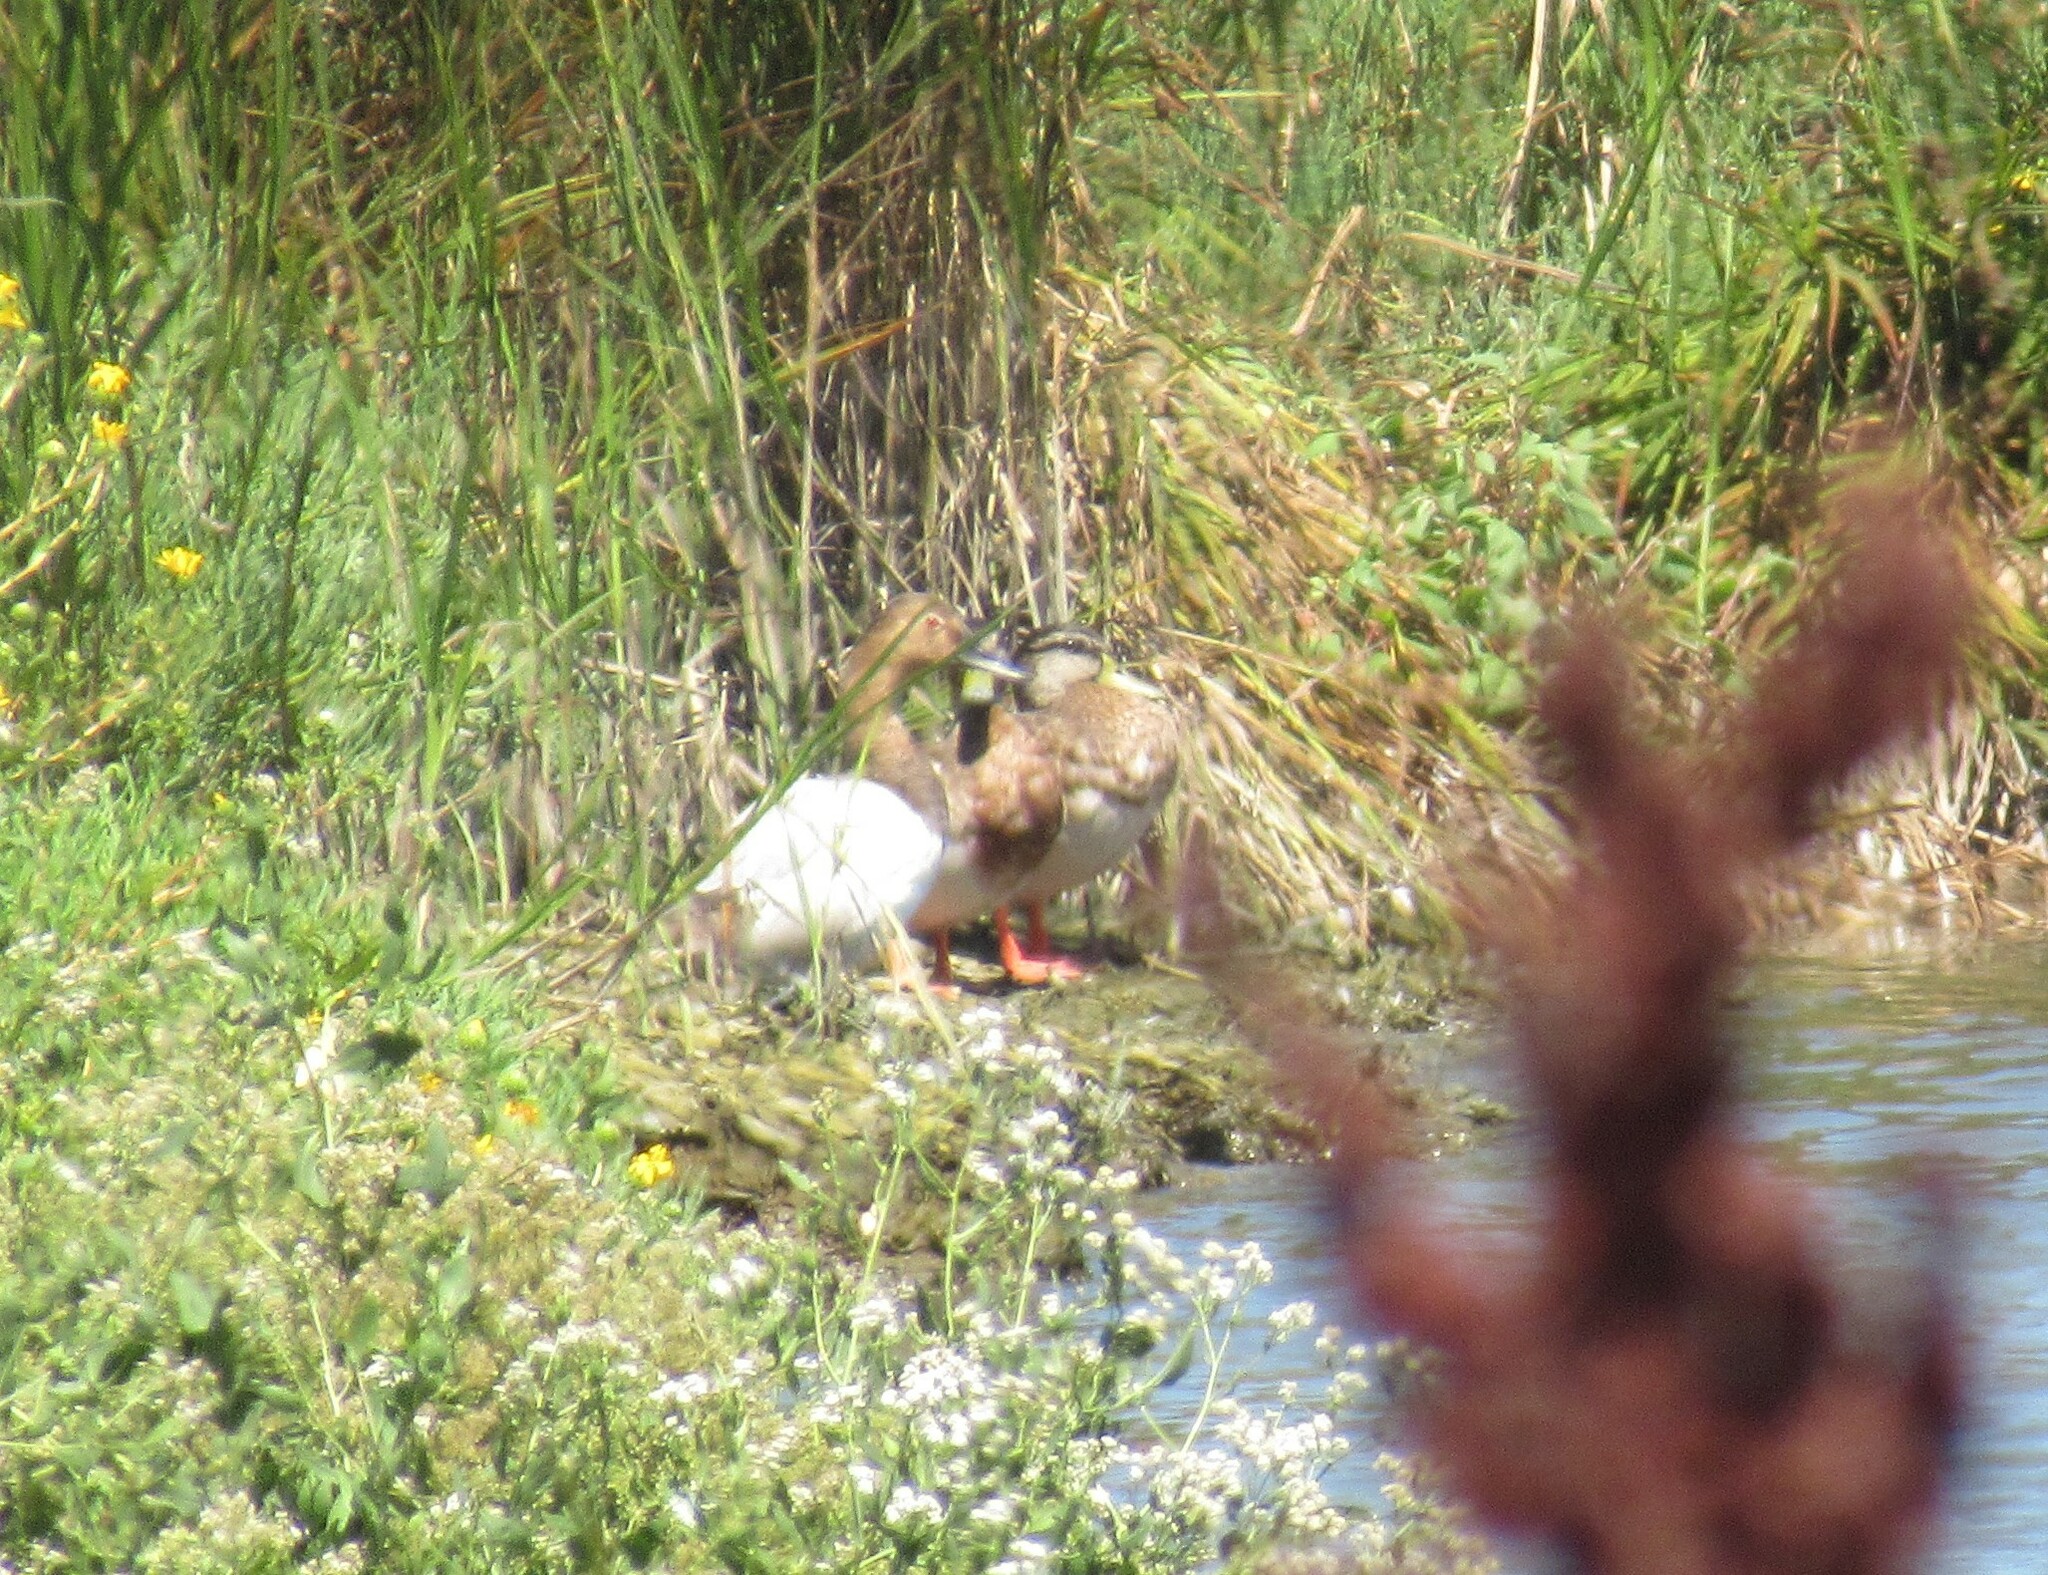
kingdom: Animalia
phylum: Chordata
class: Aves
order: Anseriformes
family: Anatidae
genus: Anas
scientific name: Anas platyrhynchos
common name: Mallard
